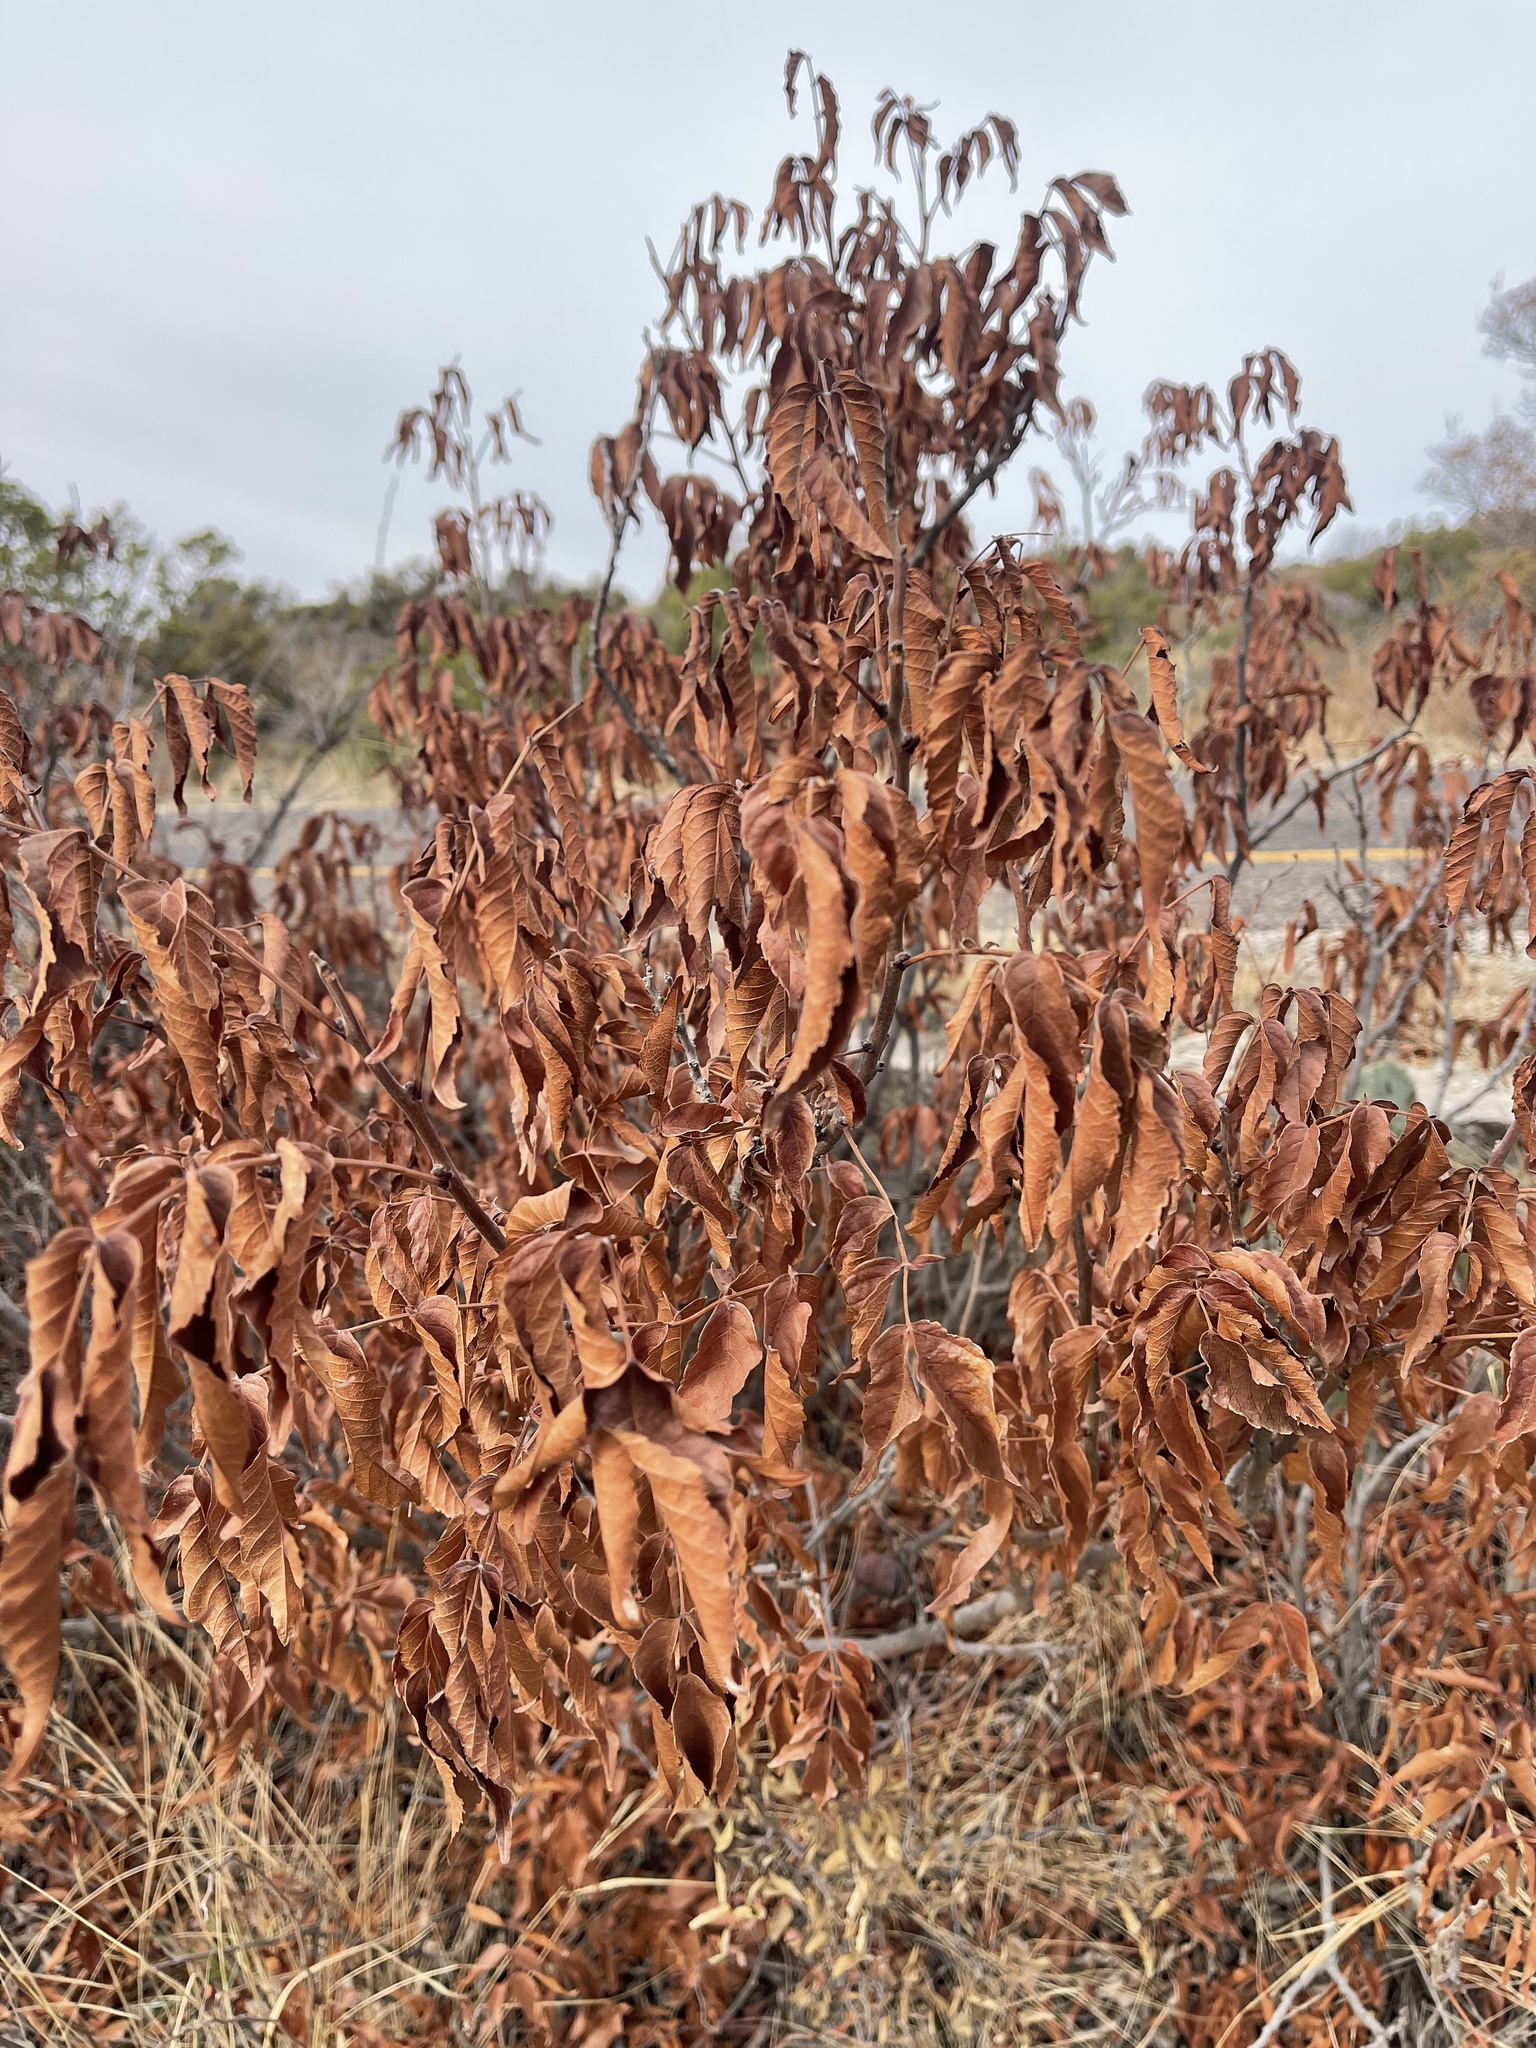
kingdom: Plantae
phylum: Tracheophyta
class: Magnoliopsida
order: Sapindales
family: Sapindaceae
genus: Ungnadia
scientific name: Ungnadia speciosa
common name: Texas-buckeye
